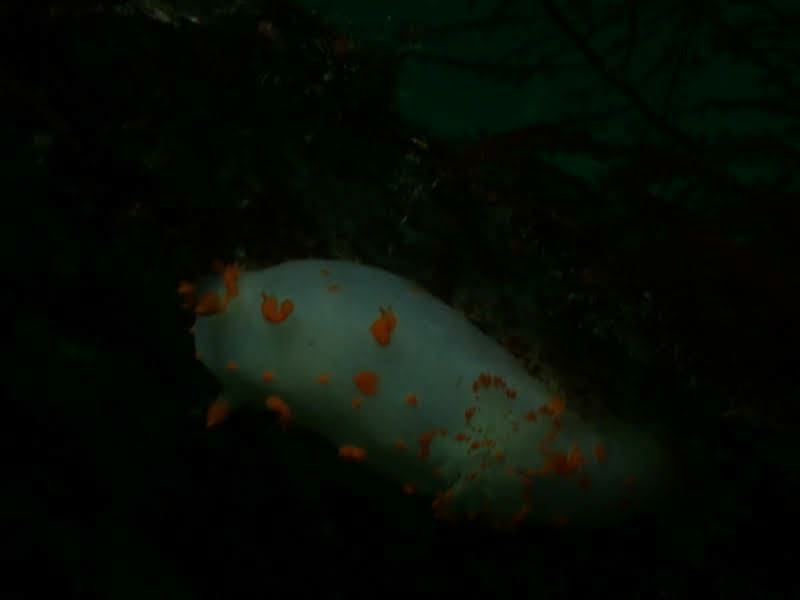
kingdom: Animalia
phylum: Mollusca
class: Gastropoda
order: Nudibranchia
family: Polyceridae
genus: Triopha
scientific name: Triopha modesta
